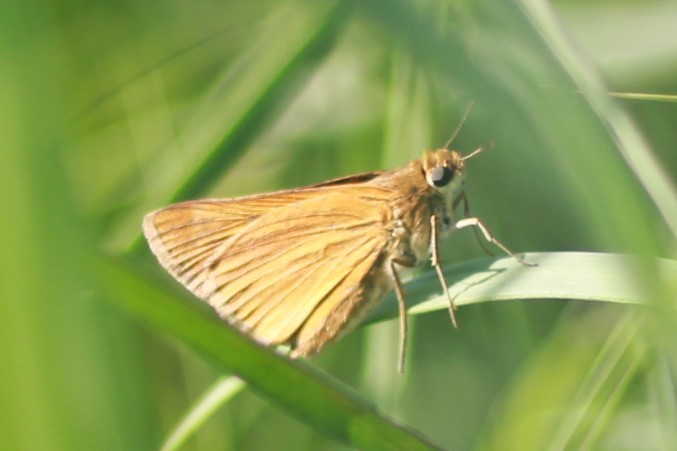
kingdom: Animalia
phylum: Arthropoda
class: Insecta
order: Lepidoptera
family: Hesperiidae
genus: Atrytone
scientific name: Atrytone delaware
